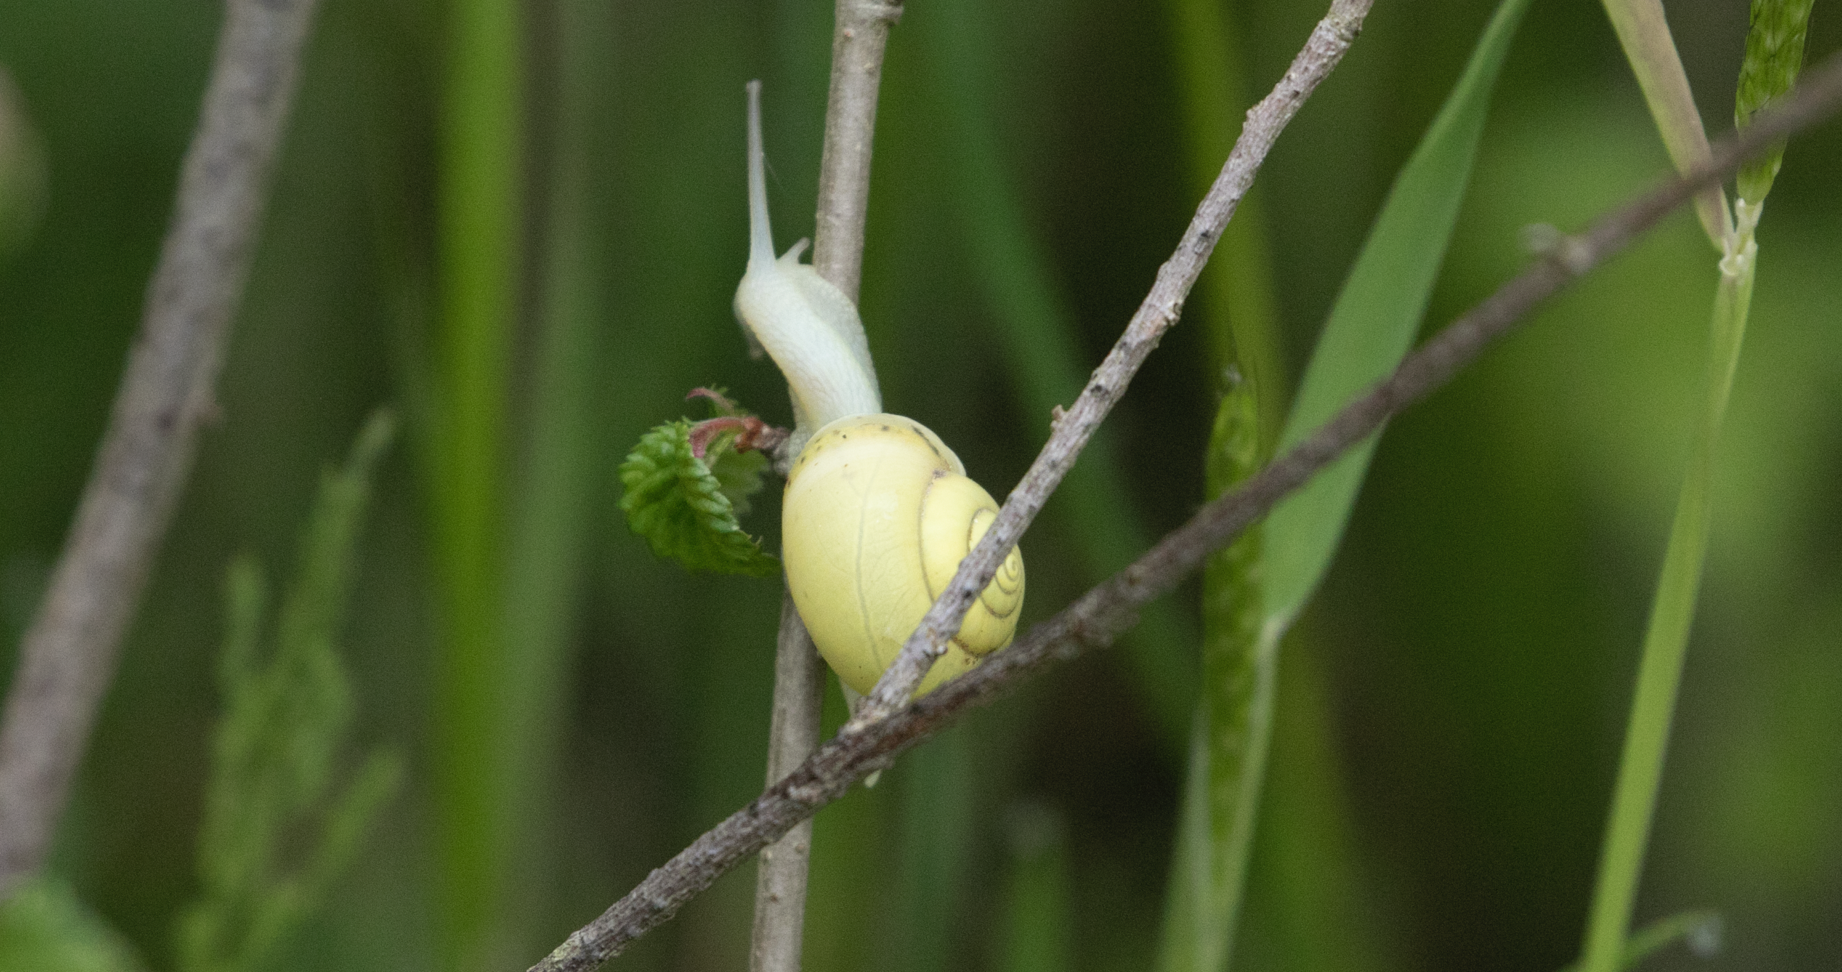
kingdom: Animalia
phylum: Mollusca
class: Gastropoda
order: Stylommatophora
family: Camaenidae
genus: Fruticicola
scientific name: Fruticicola fruticum
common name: Bush snail
